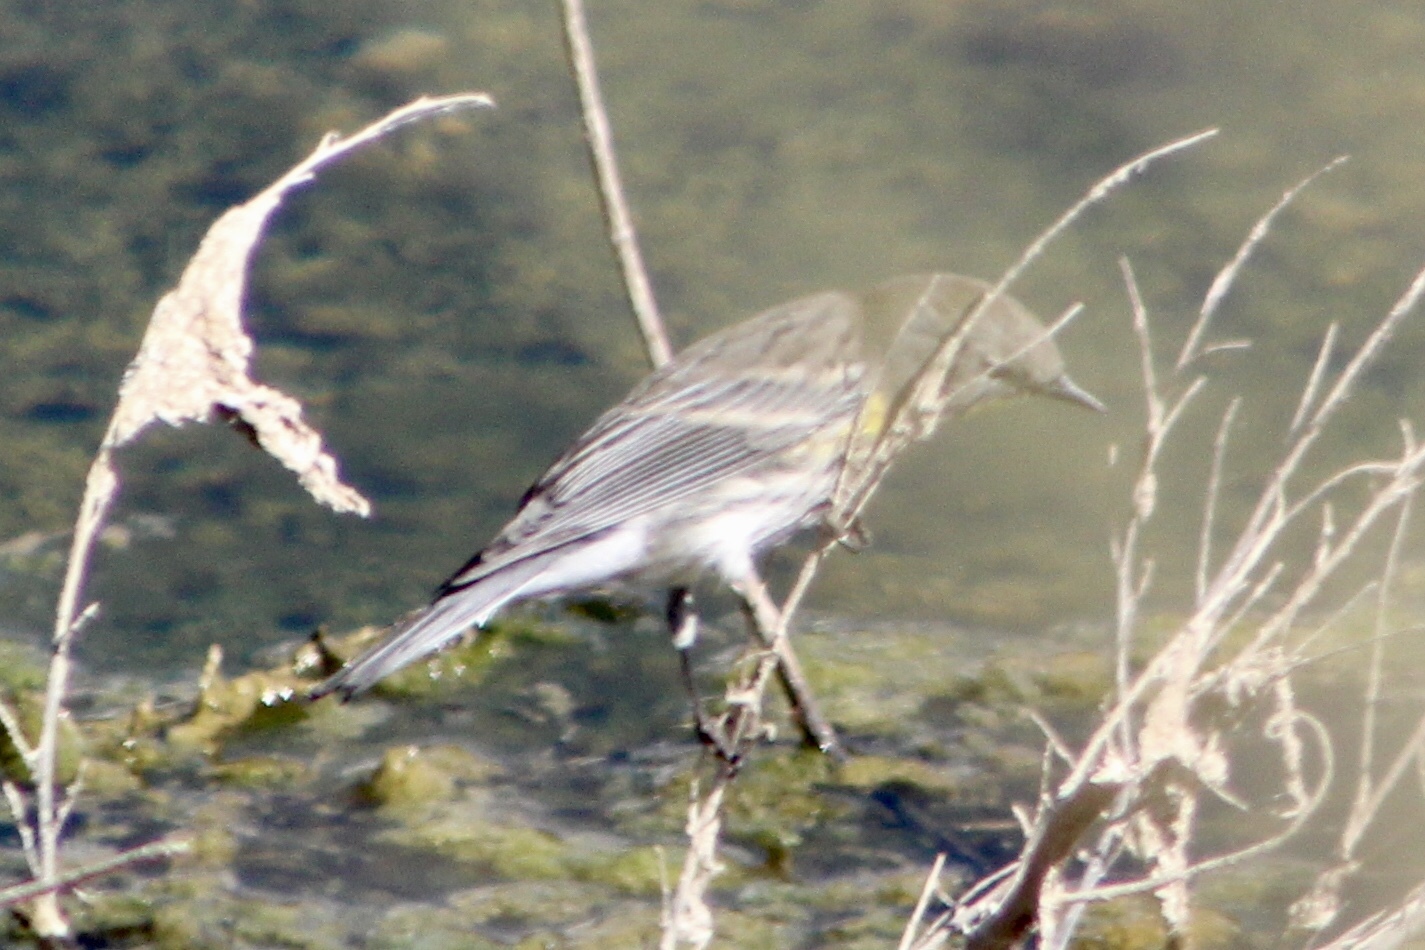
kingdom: Animalia
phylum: Chordata
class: Aves
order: Passeriformes
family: Parulidae
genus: Setophaga
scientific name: Setophaga auduboni
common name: Audubon's warbler
